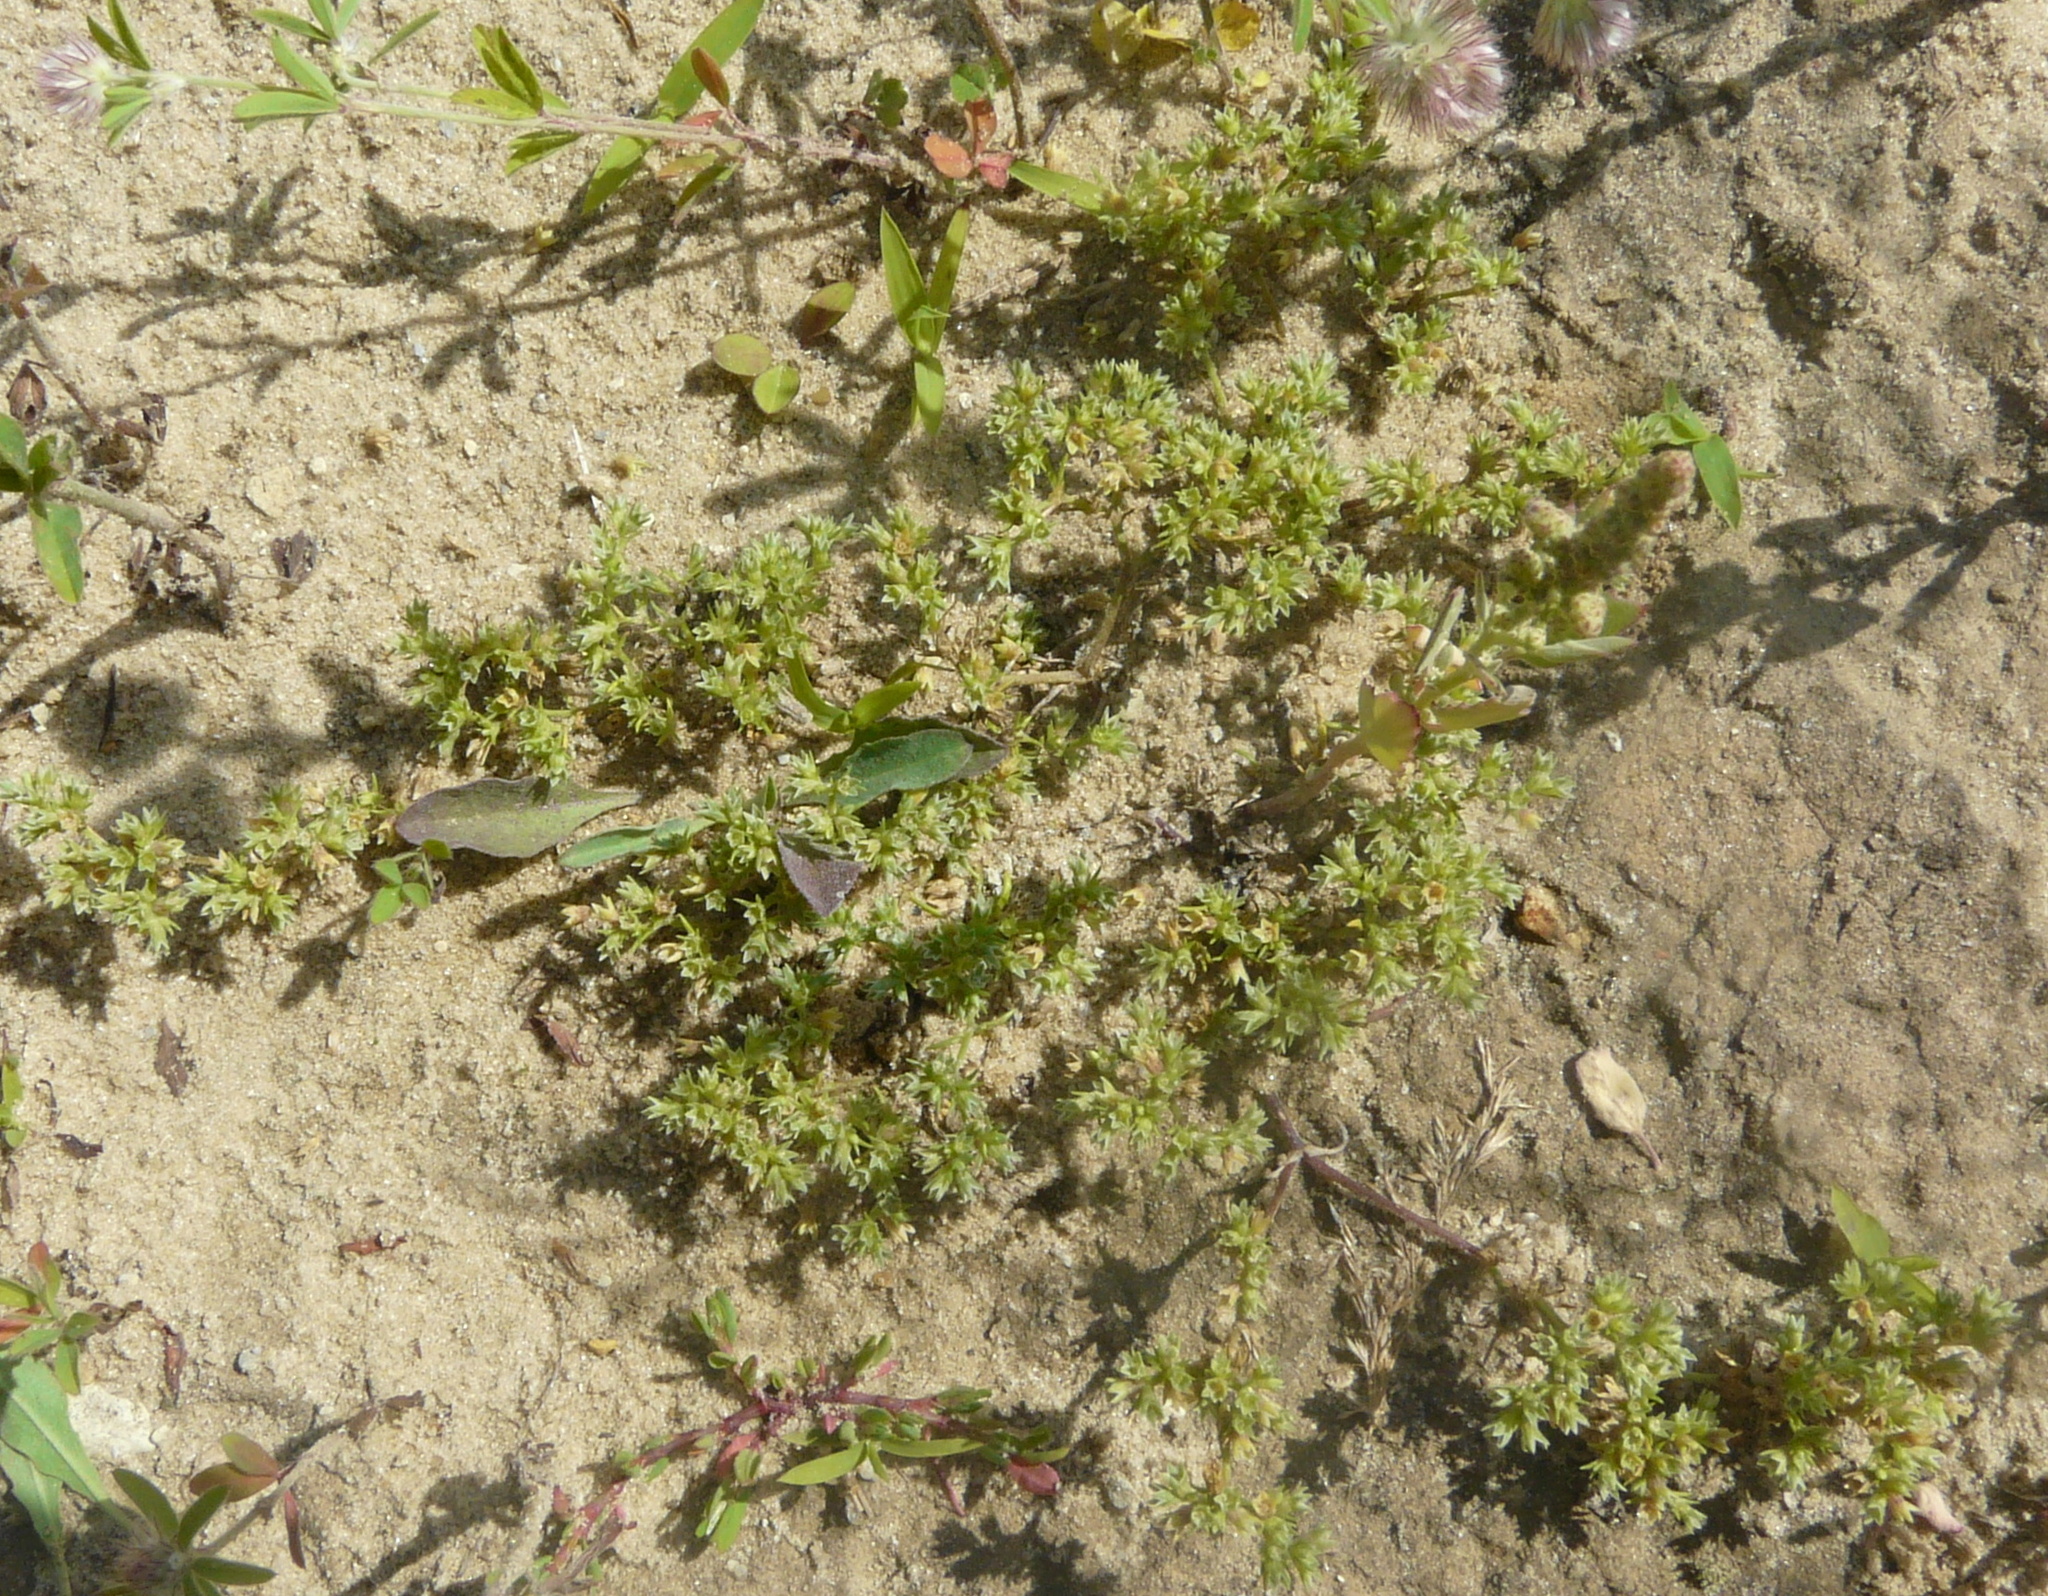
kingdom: Plantae
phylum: Tracheophyta
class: Magnoliopsida
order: Caryophyllales
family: Caryophyllaceae
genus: Scleranthus
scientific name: Scleranthus annuus
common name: Annual knawel
